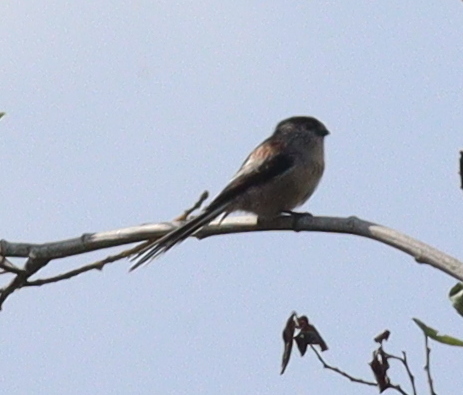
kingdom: Animalia
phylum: Chordata
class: Aves
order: Passeriformes
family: Aegithalidae
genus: Aegithalos
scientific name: Aegithalos caudatus
